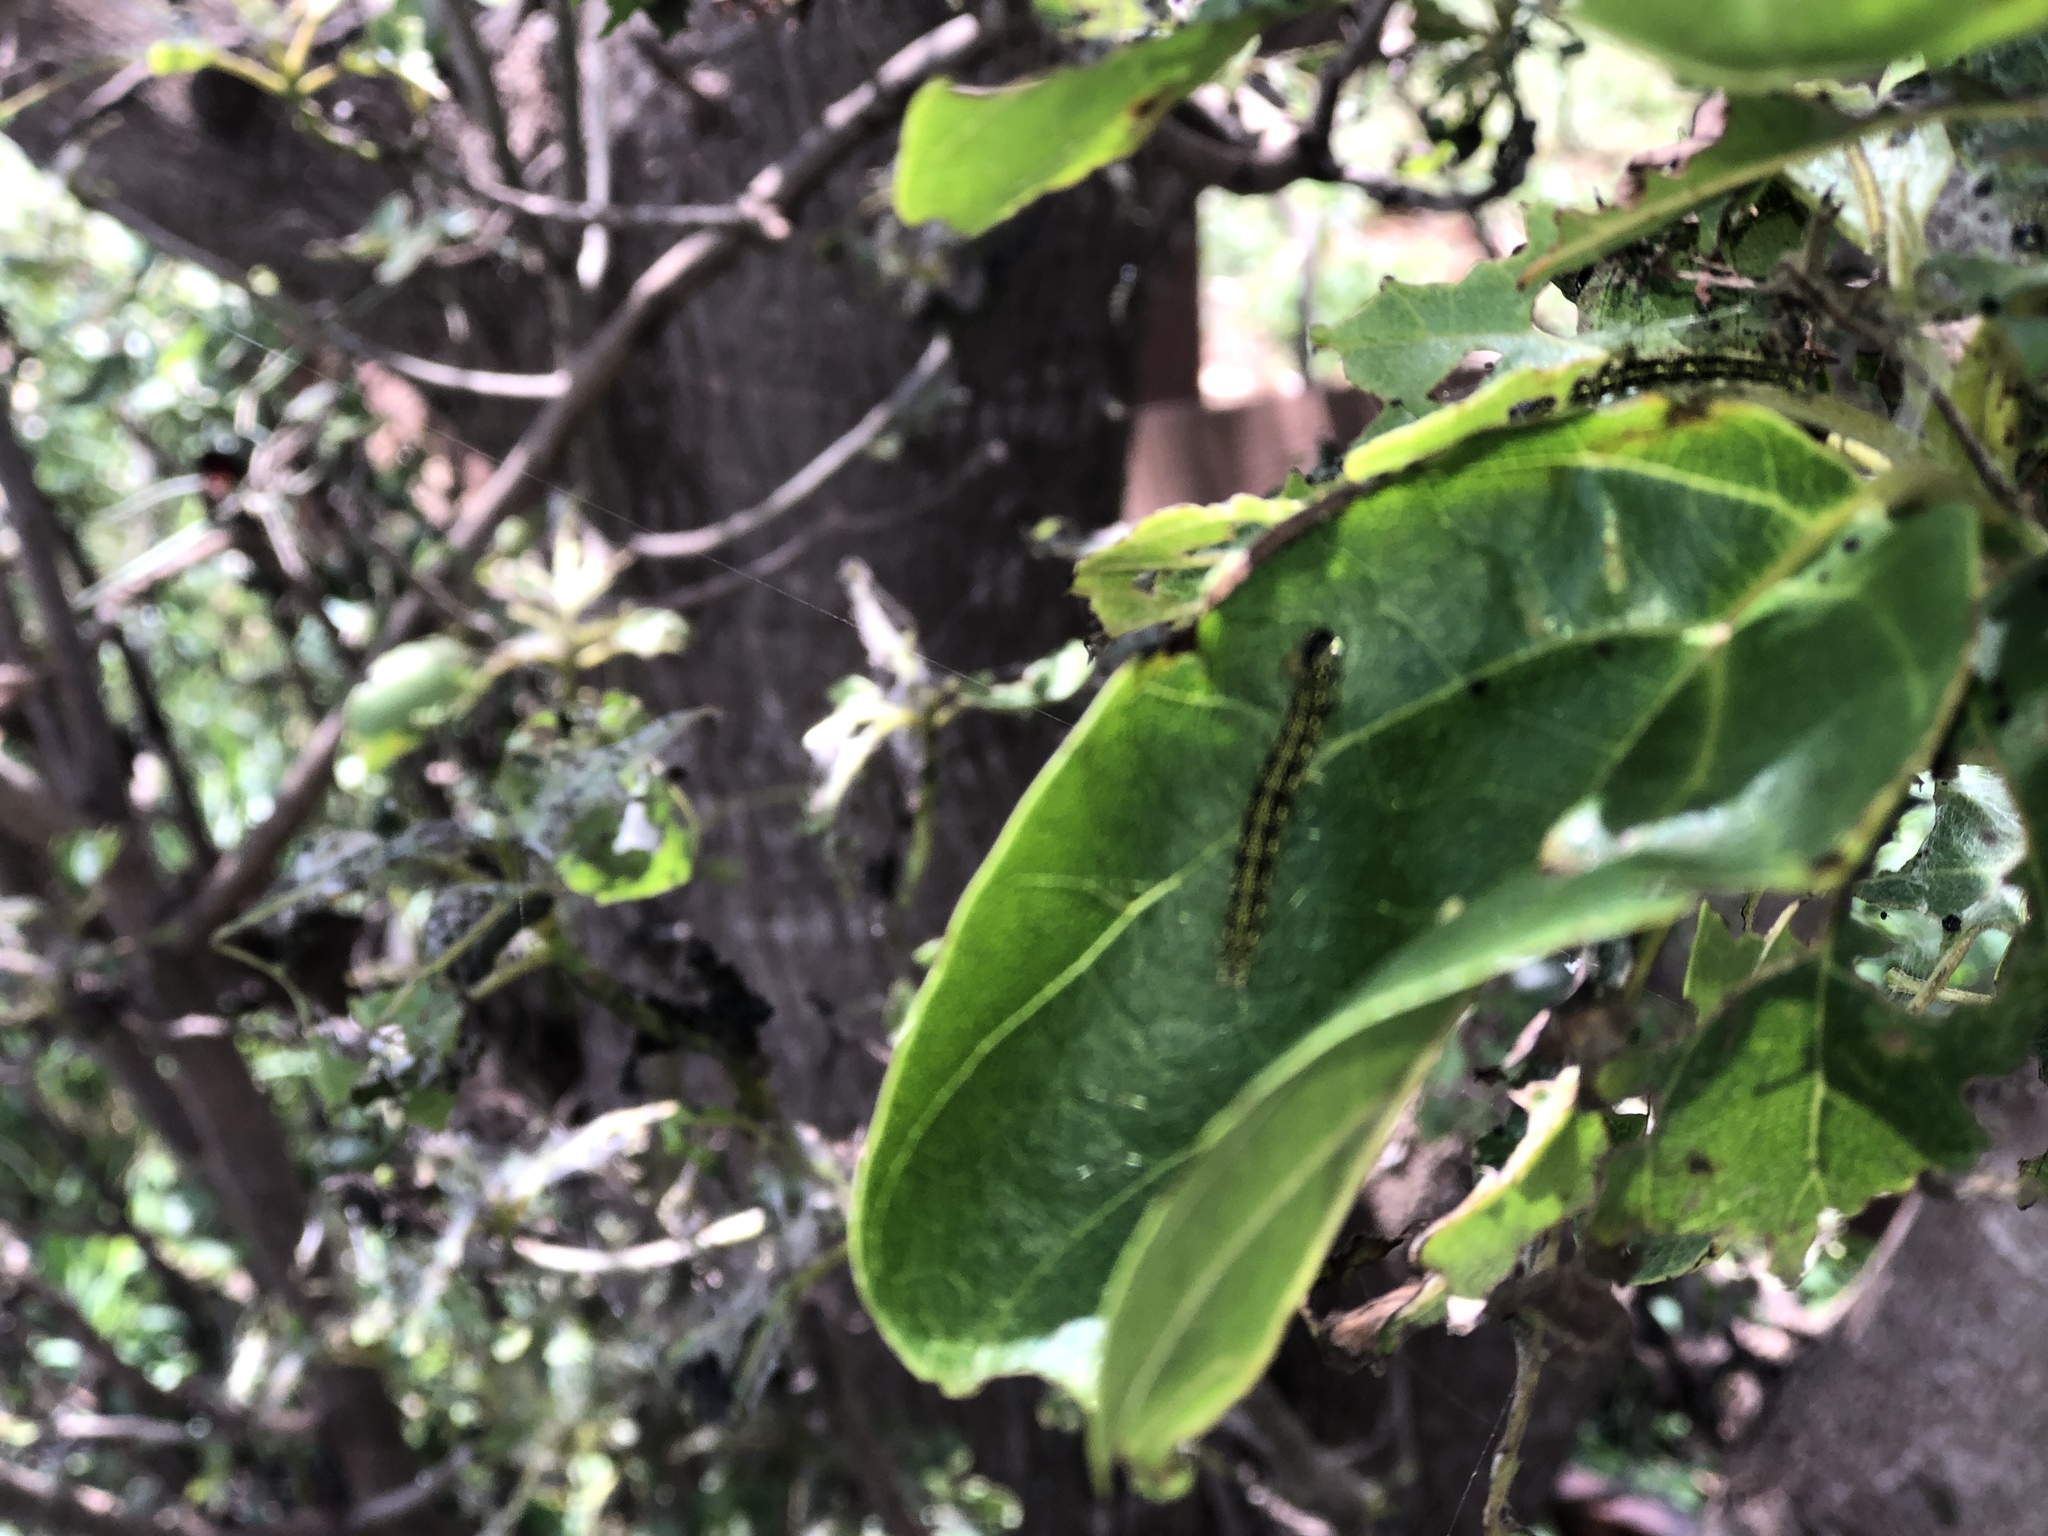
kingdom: Plantae
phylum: Tracheophyta
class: Magnoliopsida
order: Boraginales
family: Cordiaceae
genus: Cordia
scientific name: Cordia subcordata
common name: Mareer
